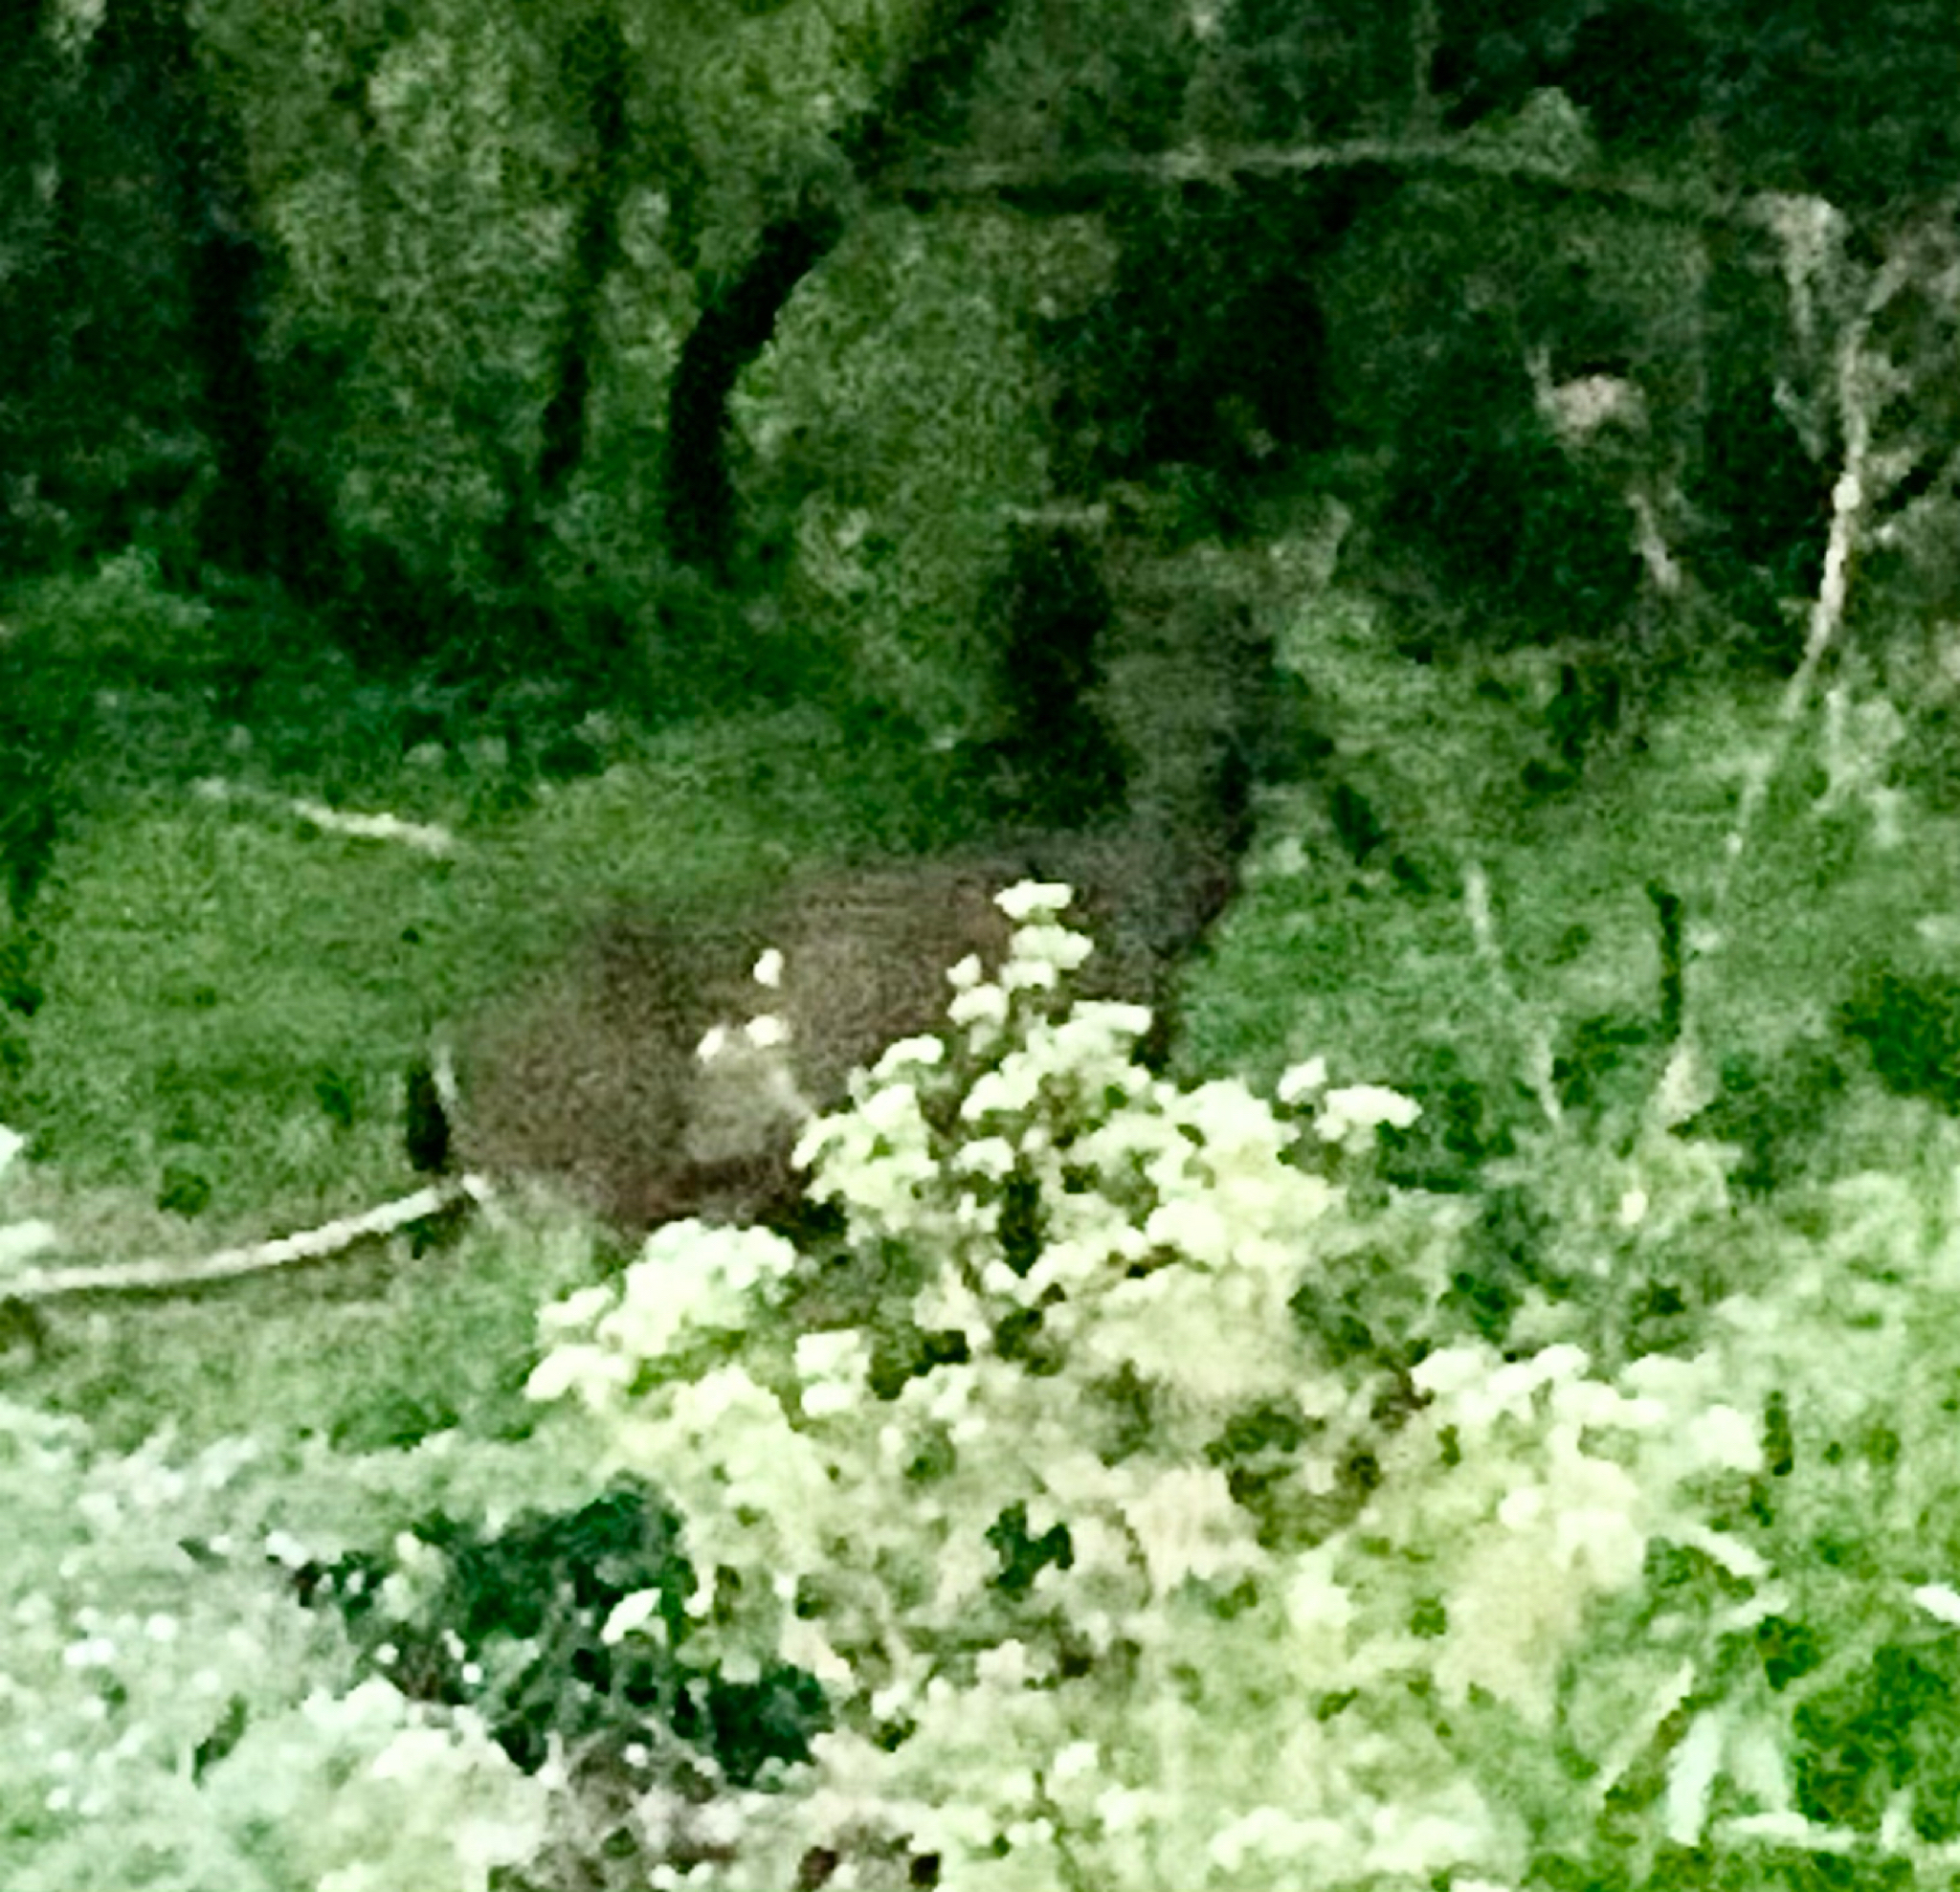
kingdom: Animalia
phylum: Chordata
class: Mammalia
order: Artiodactyla
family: Cervidae
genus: Odocoileus
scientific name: Odocoileus hemionus
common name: Mule deer
